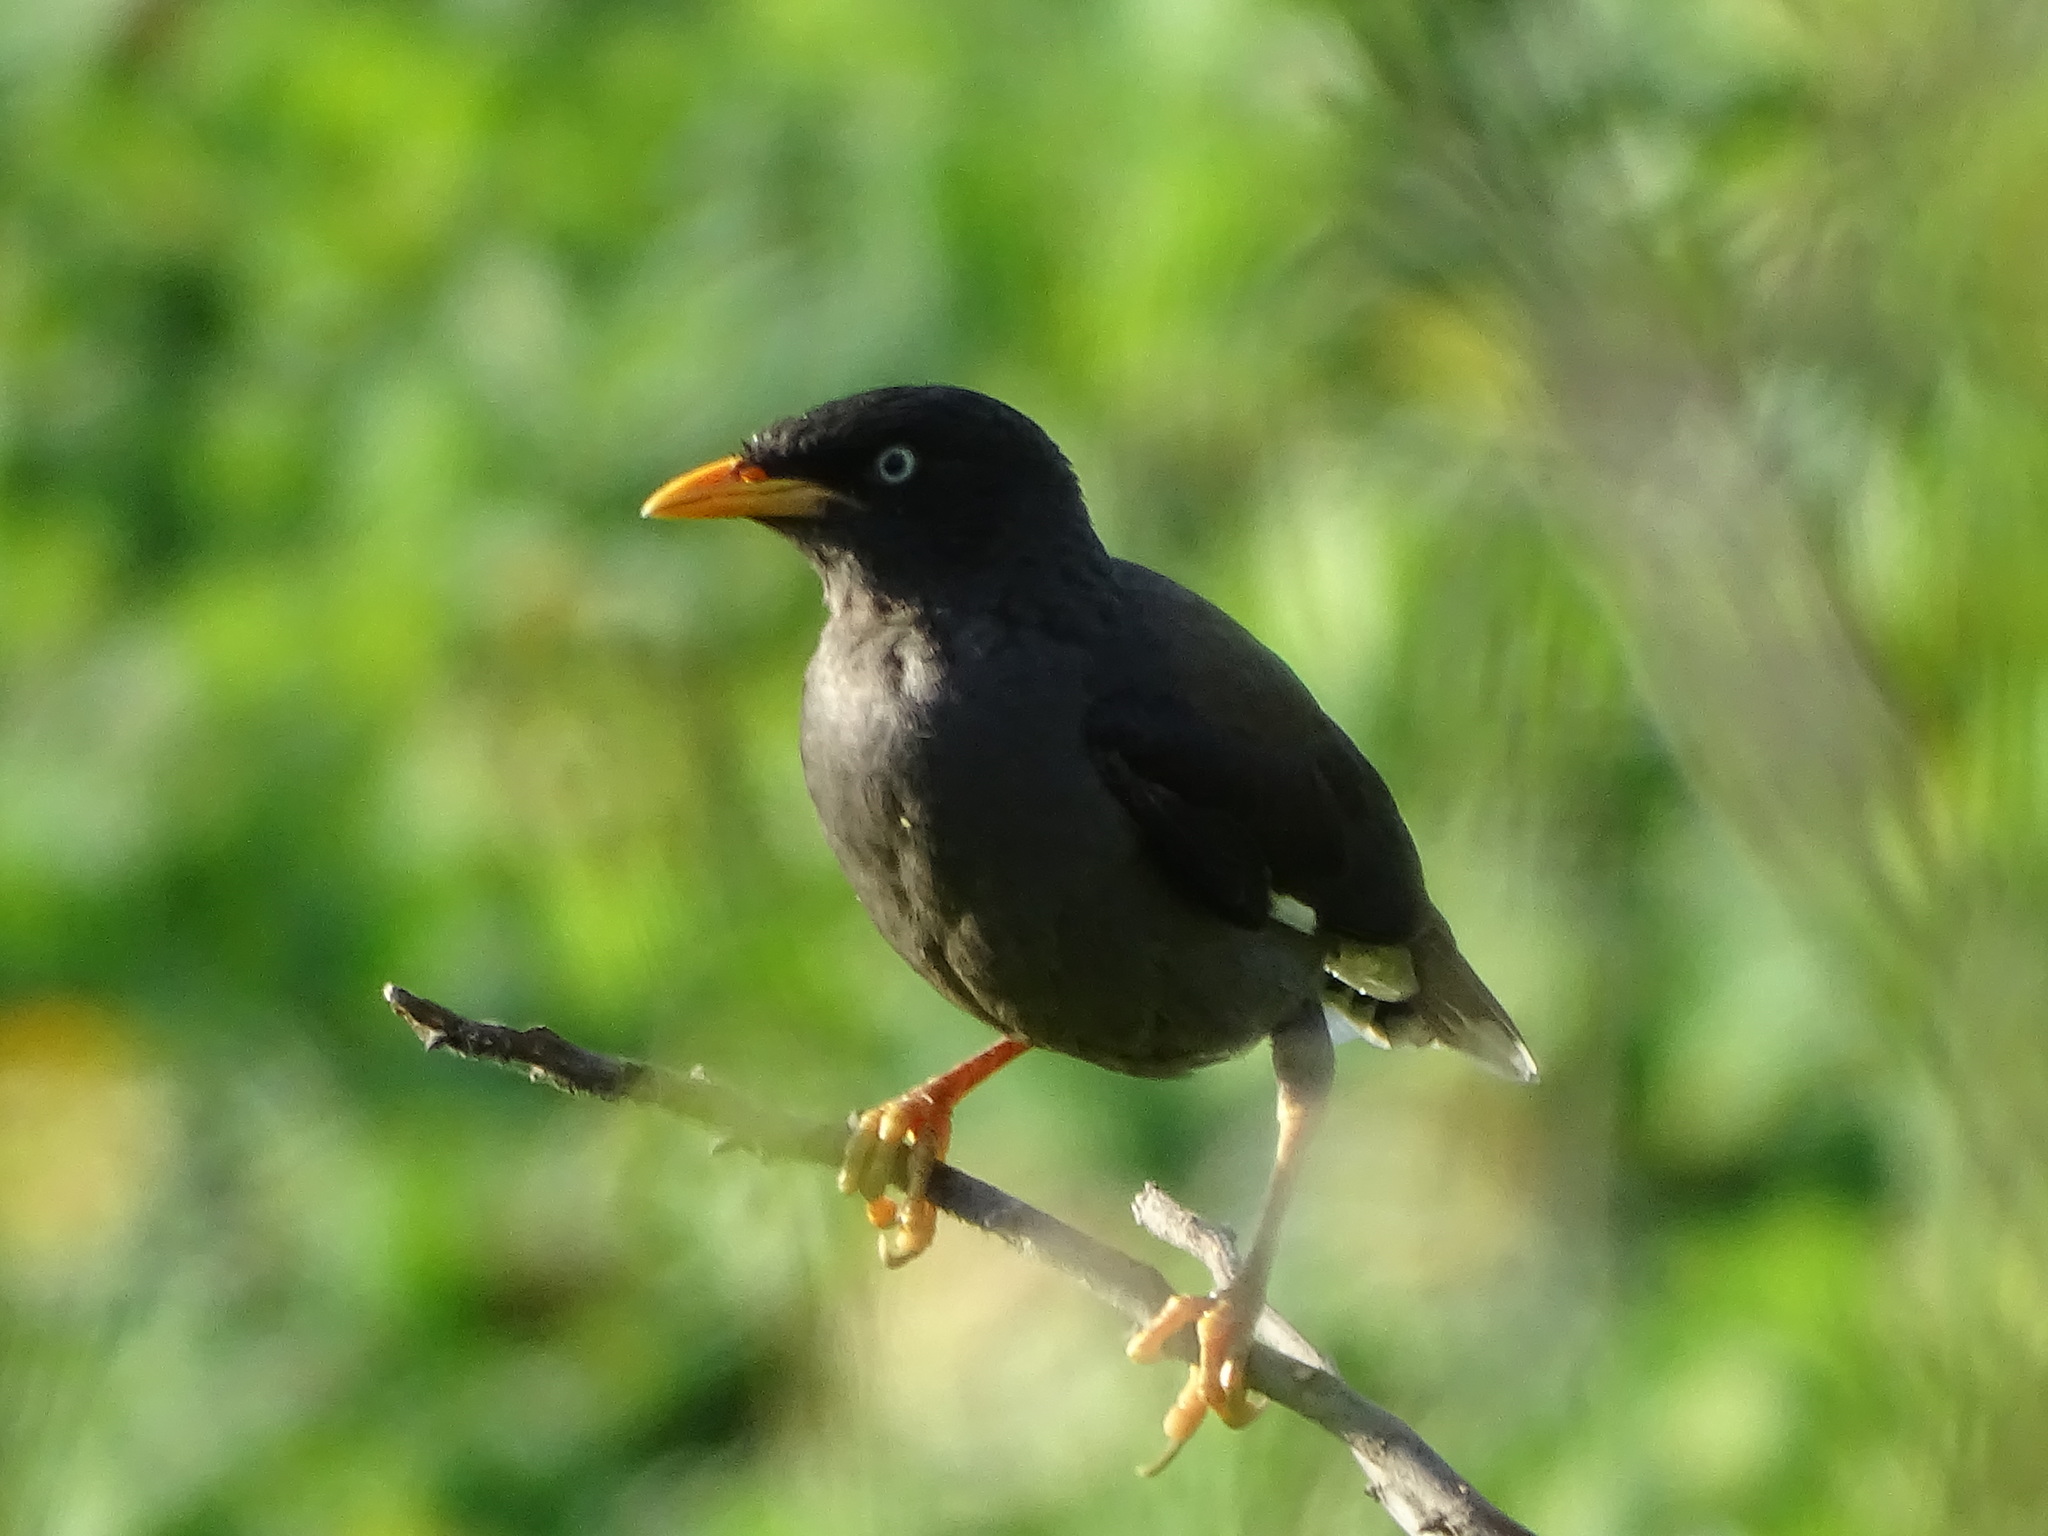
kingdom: Animalia
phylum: Chordata
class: Aves
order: Passeriformes
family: Sturnidae
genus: Acridotheres
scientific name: Acridotheres javanicus
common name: Javan myna
